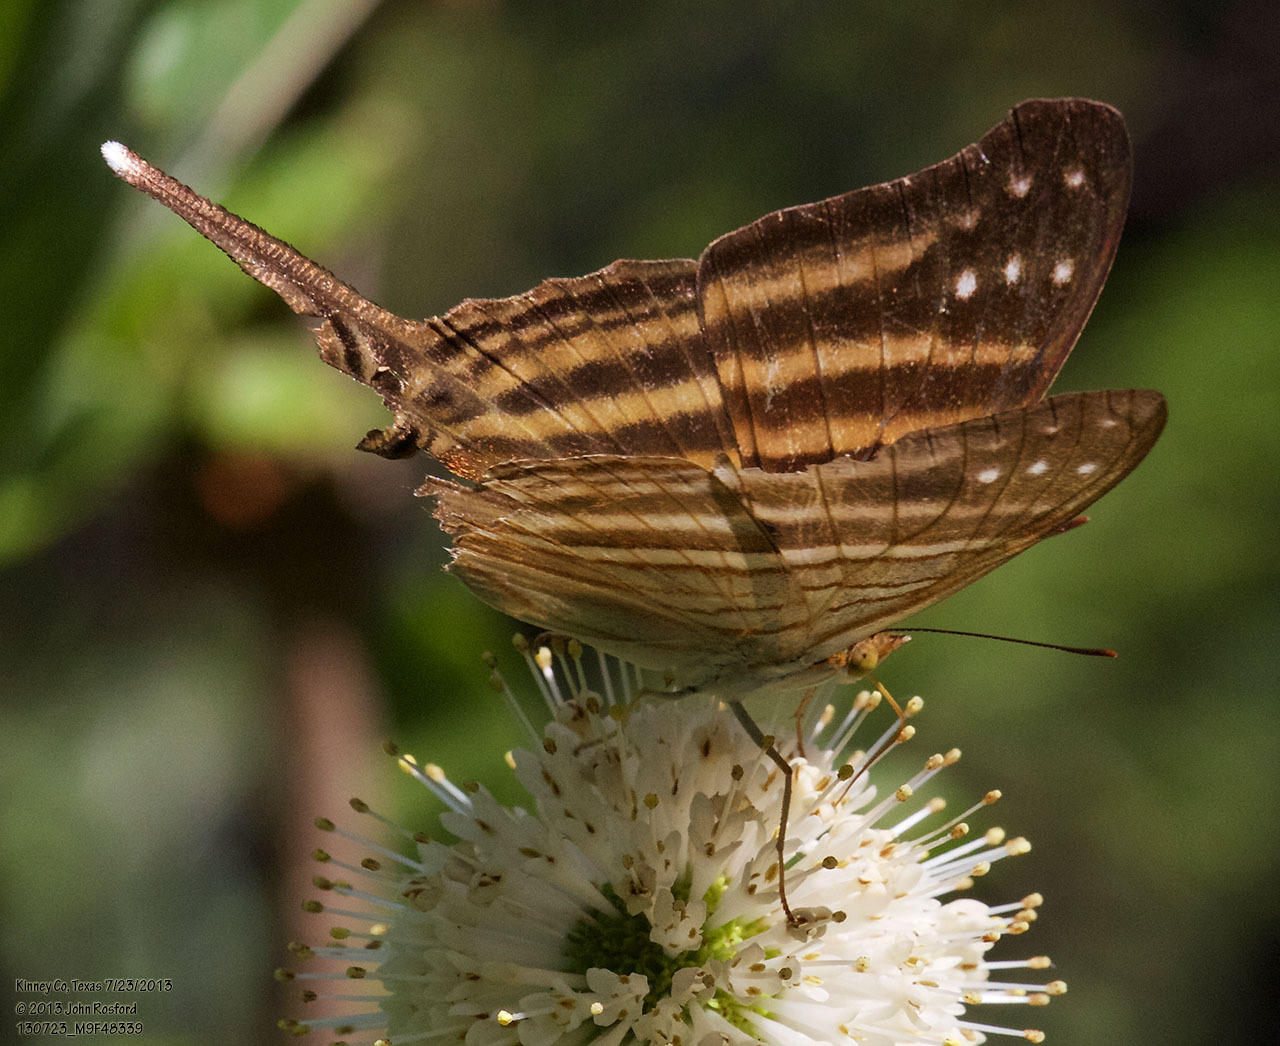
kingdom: Animalia
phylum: Arthropoda
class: Insecta
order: Lepidoptera
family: Nymphalidae
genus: Marpesia
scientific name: Marpesia chiron
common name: Many-banded daggerwing
